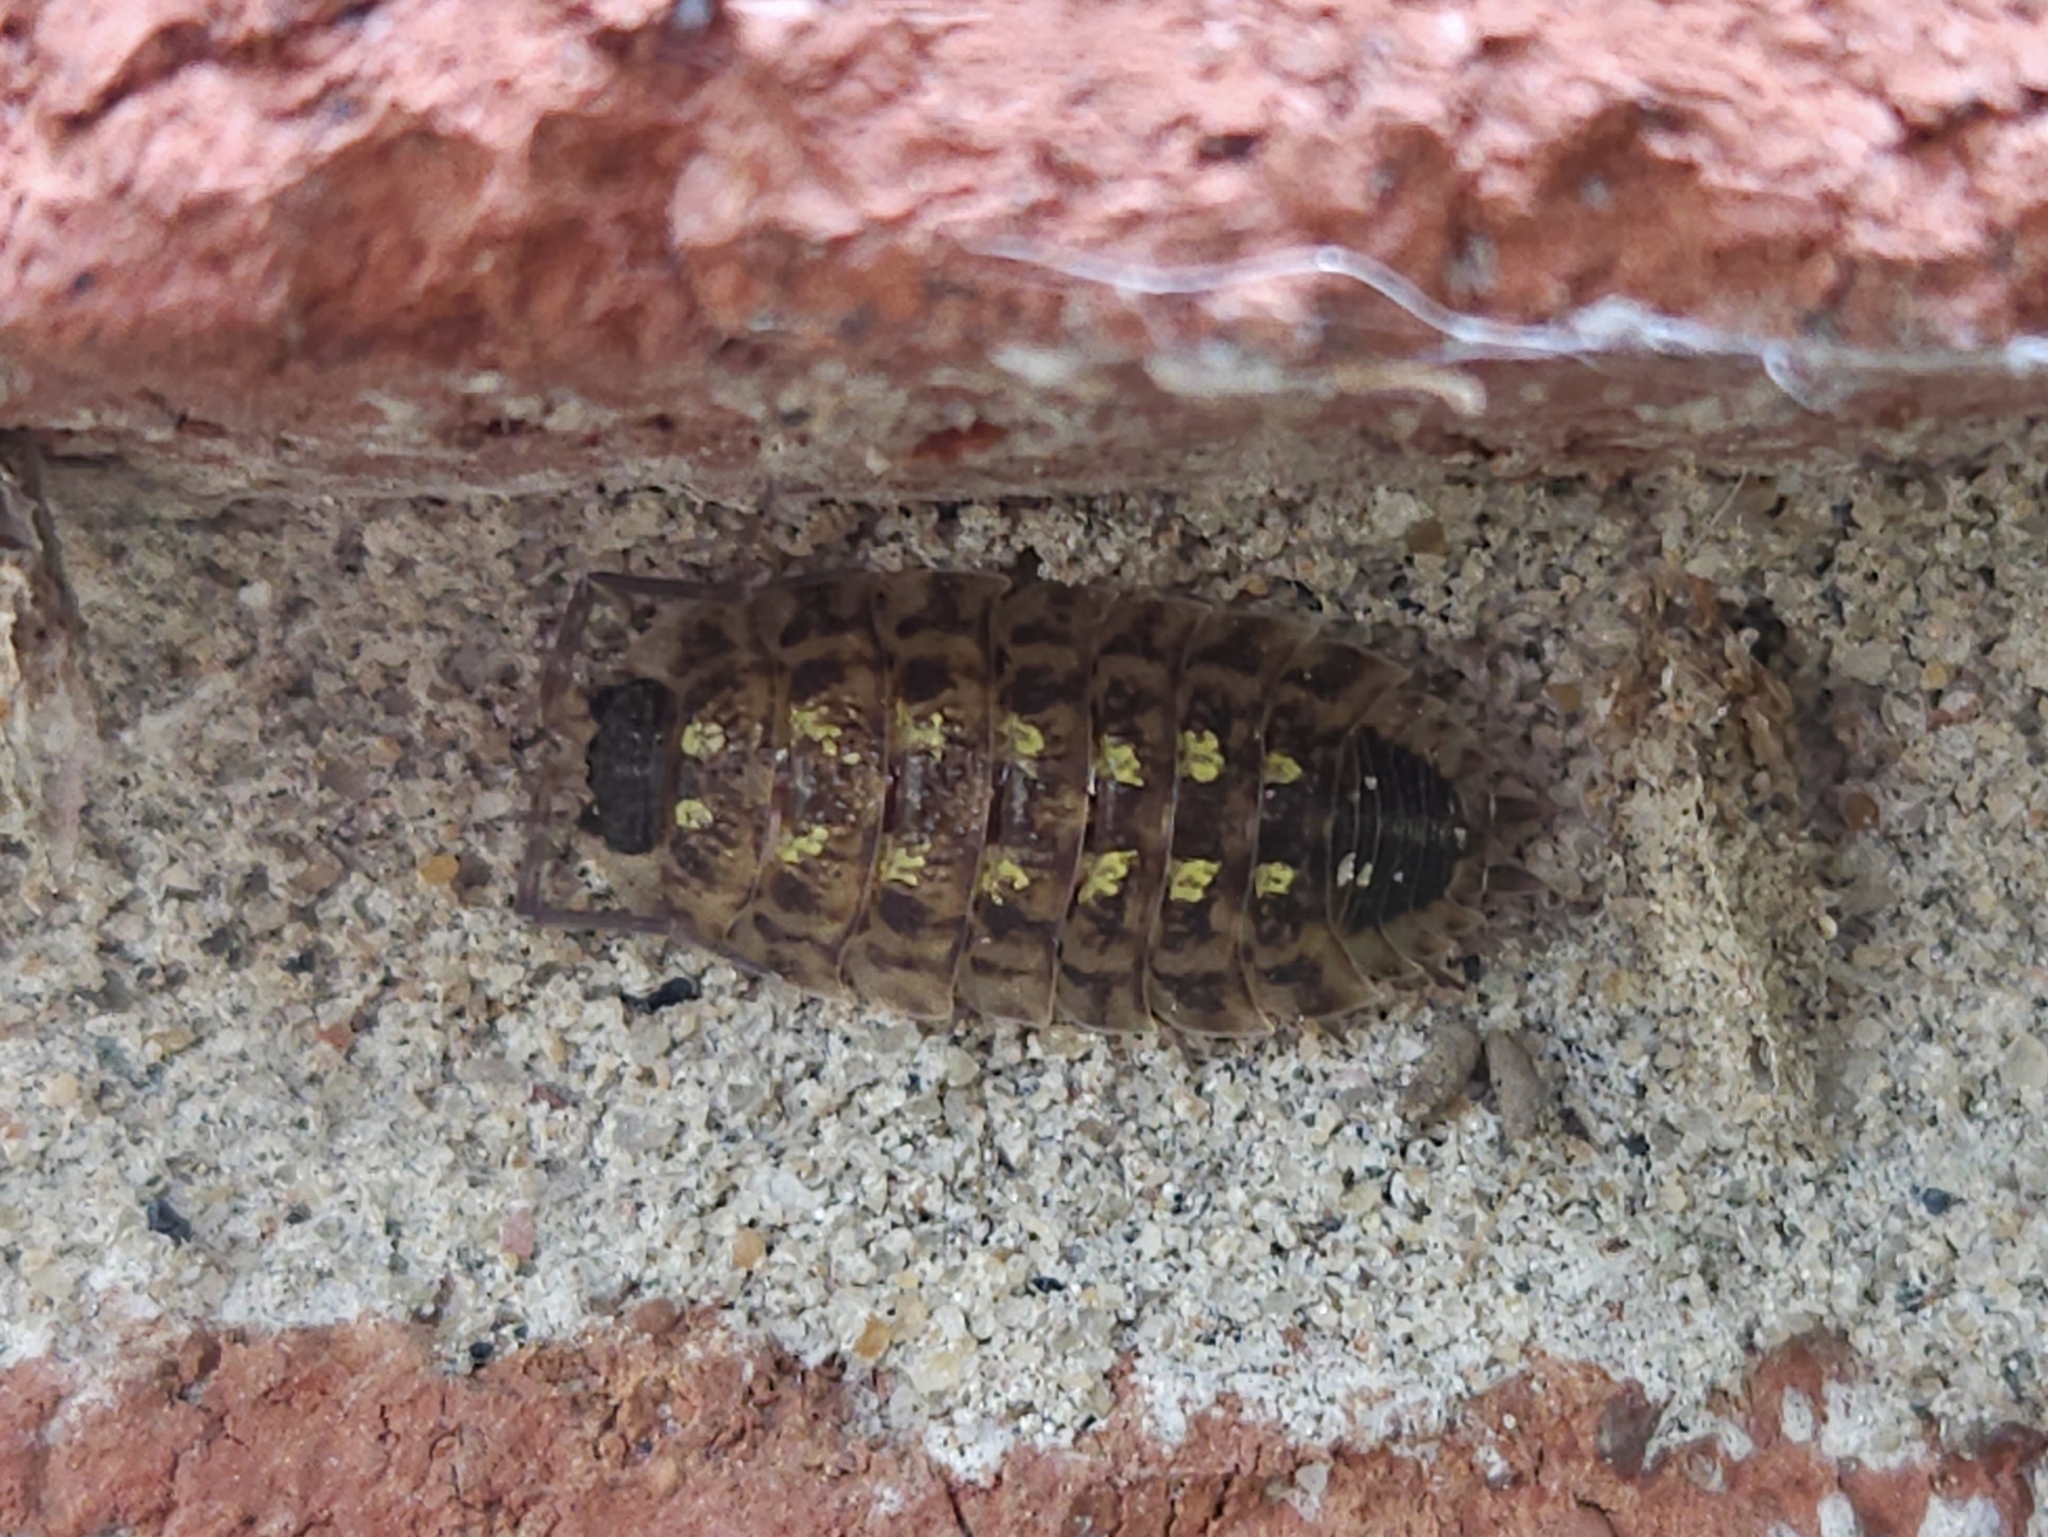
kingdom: Animalia
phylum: Arthropoda
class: Malacostraca
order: Isopoda
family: Porcellionidae
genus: Porcellio
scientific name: Porcellio spinicornis
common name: Painted woodlouse
